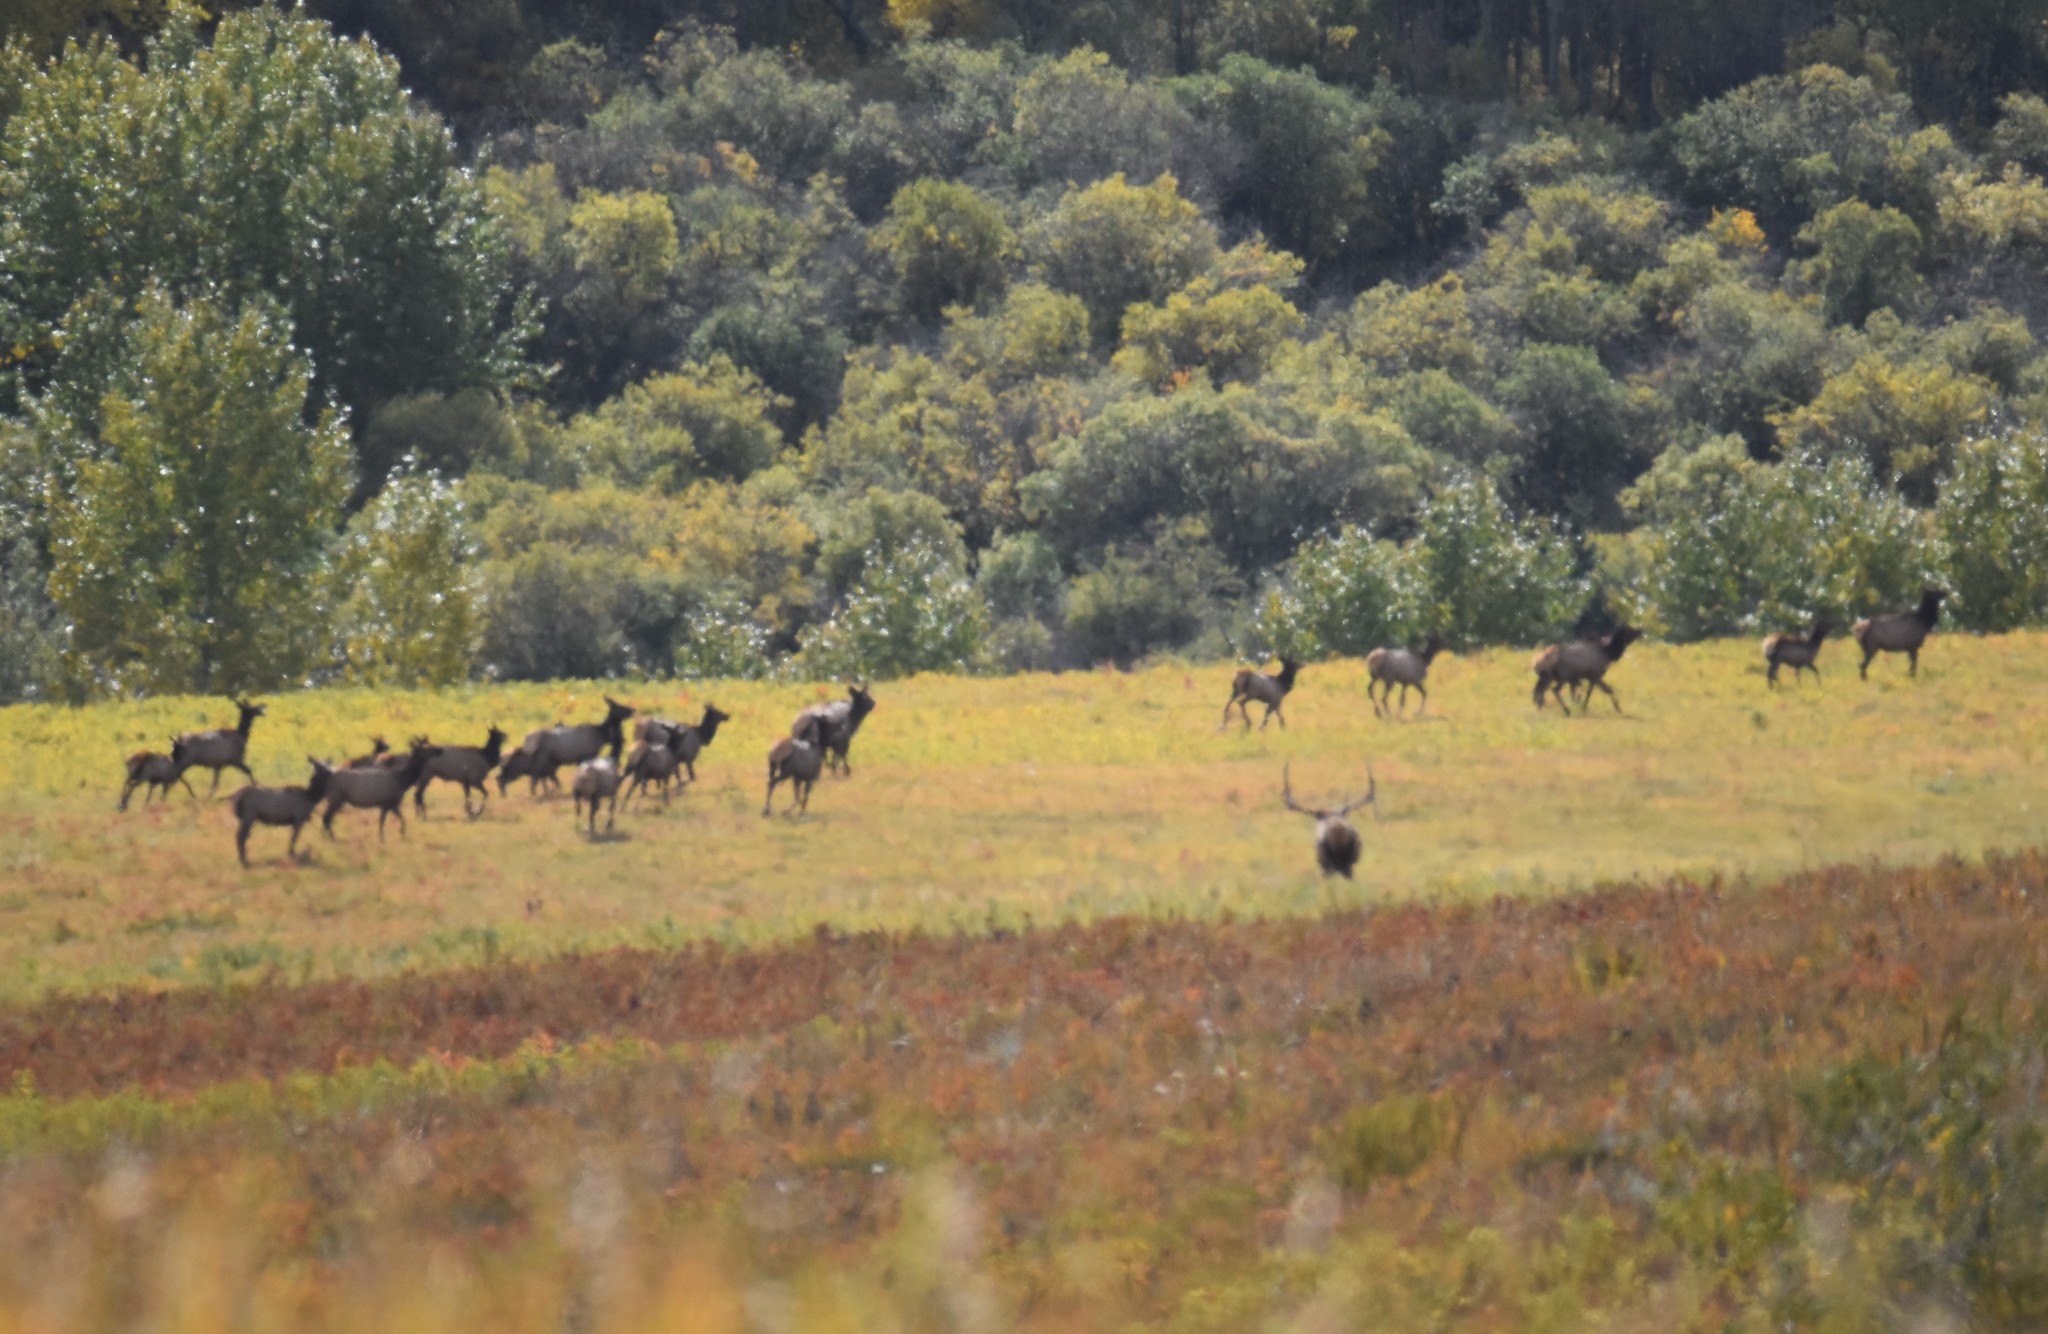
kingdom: Animalia
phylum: Chordata
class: Mammalia
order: Artiodactyla
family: Cervidae
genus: Cervus
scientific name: Cervus elaphus
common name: Red deer
